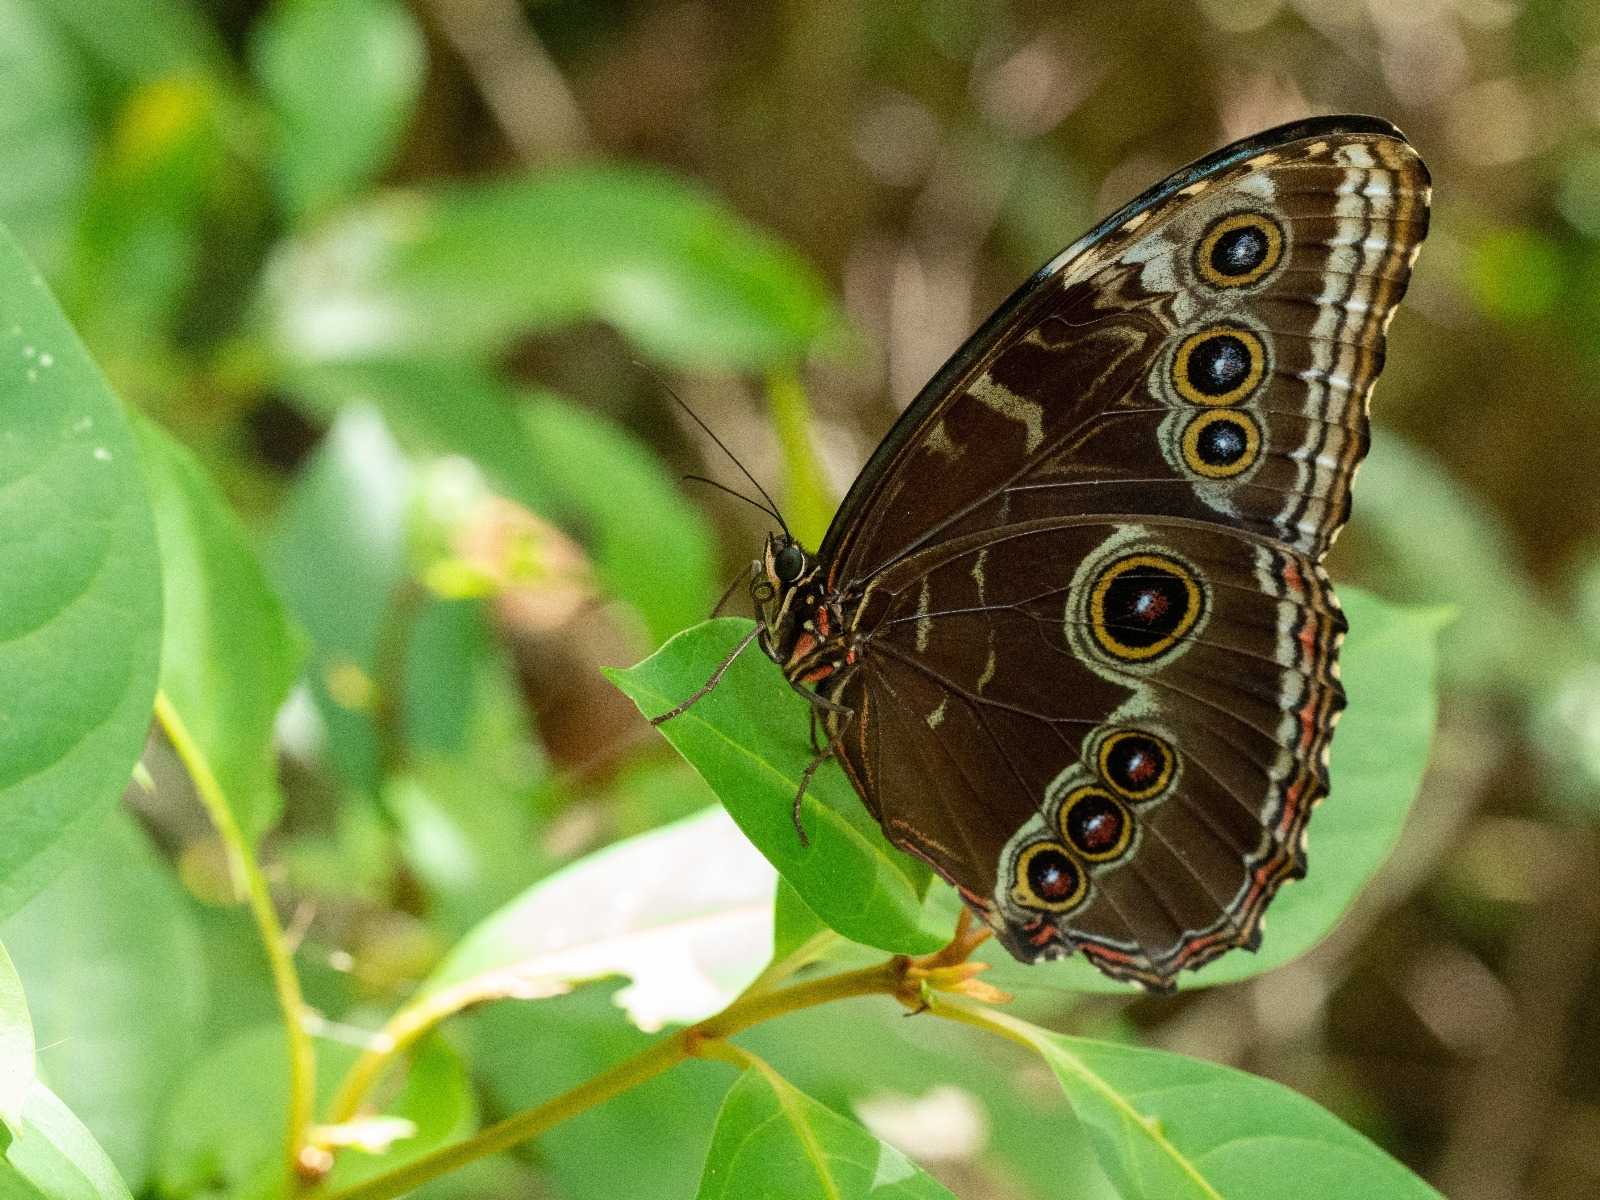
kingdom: Animalia
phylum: Arthropoda
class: Insecta
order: Lepidoptera
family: Nymphalidae
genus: Morpho
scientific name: Morpho helenor
